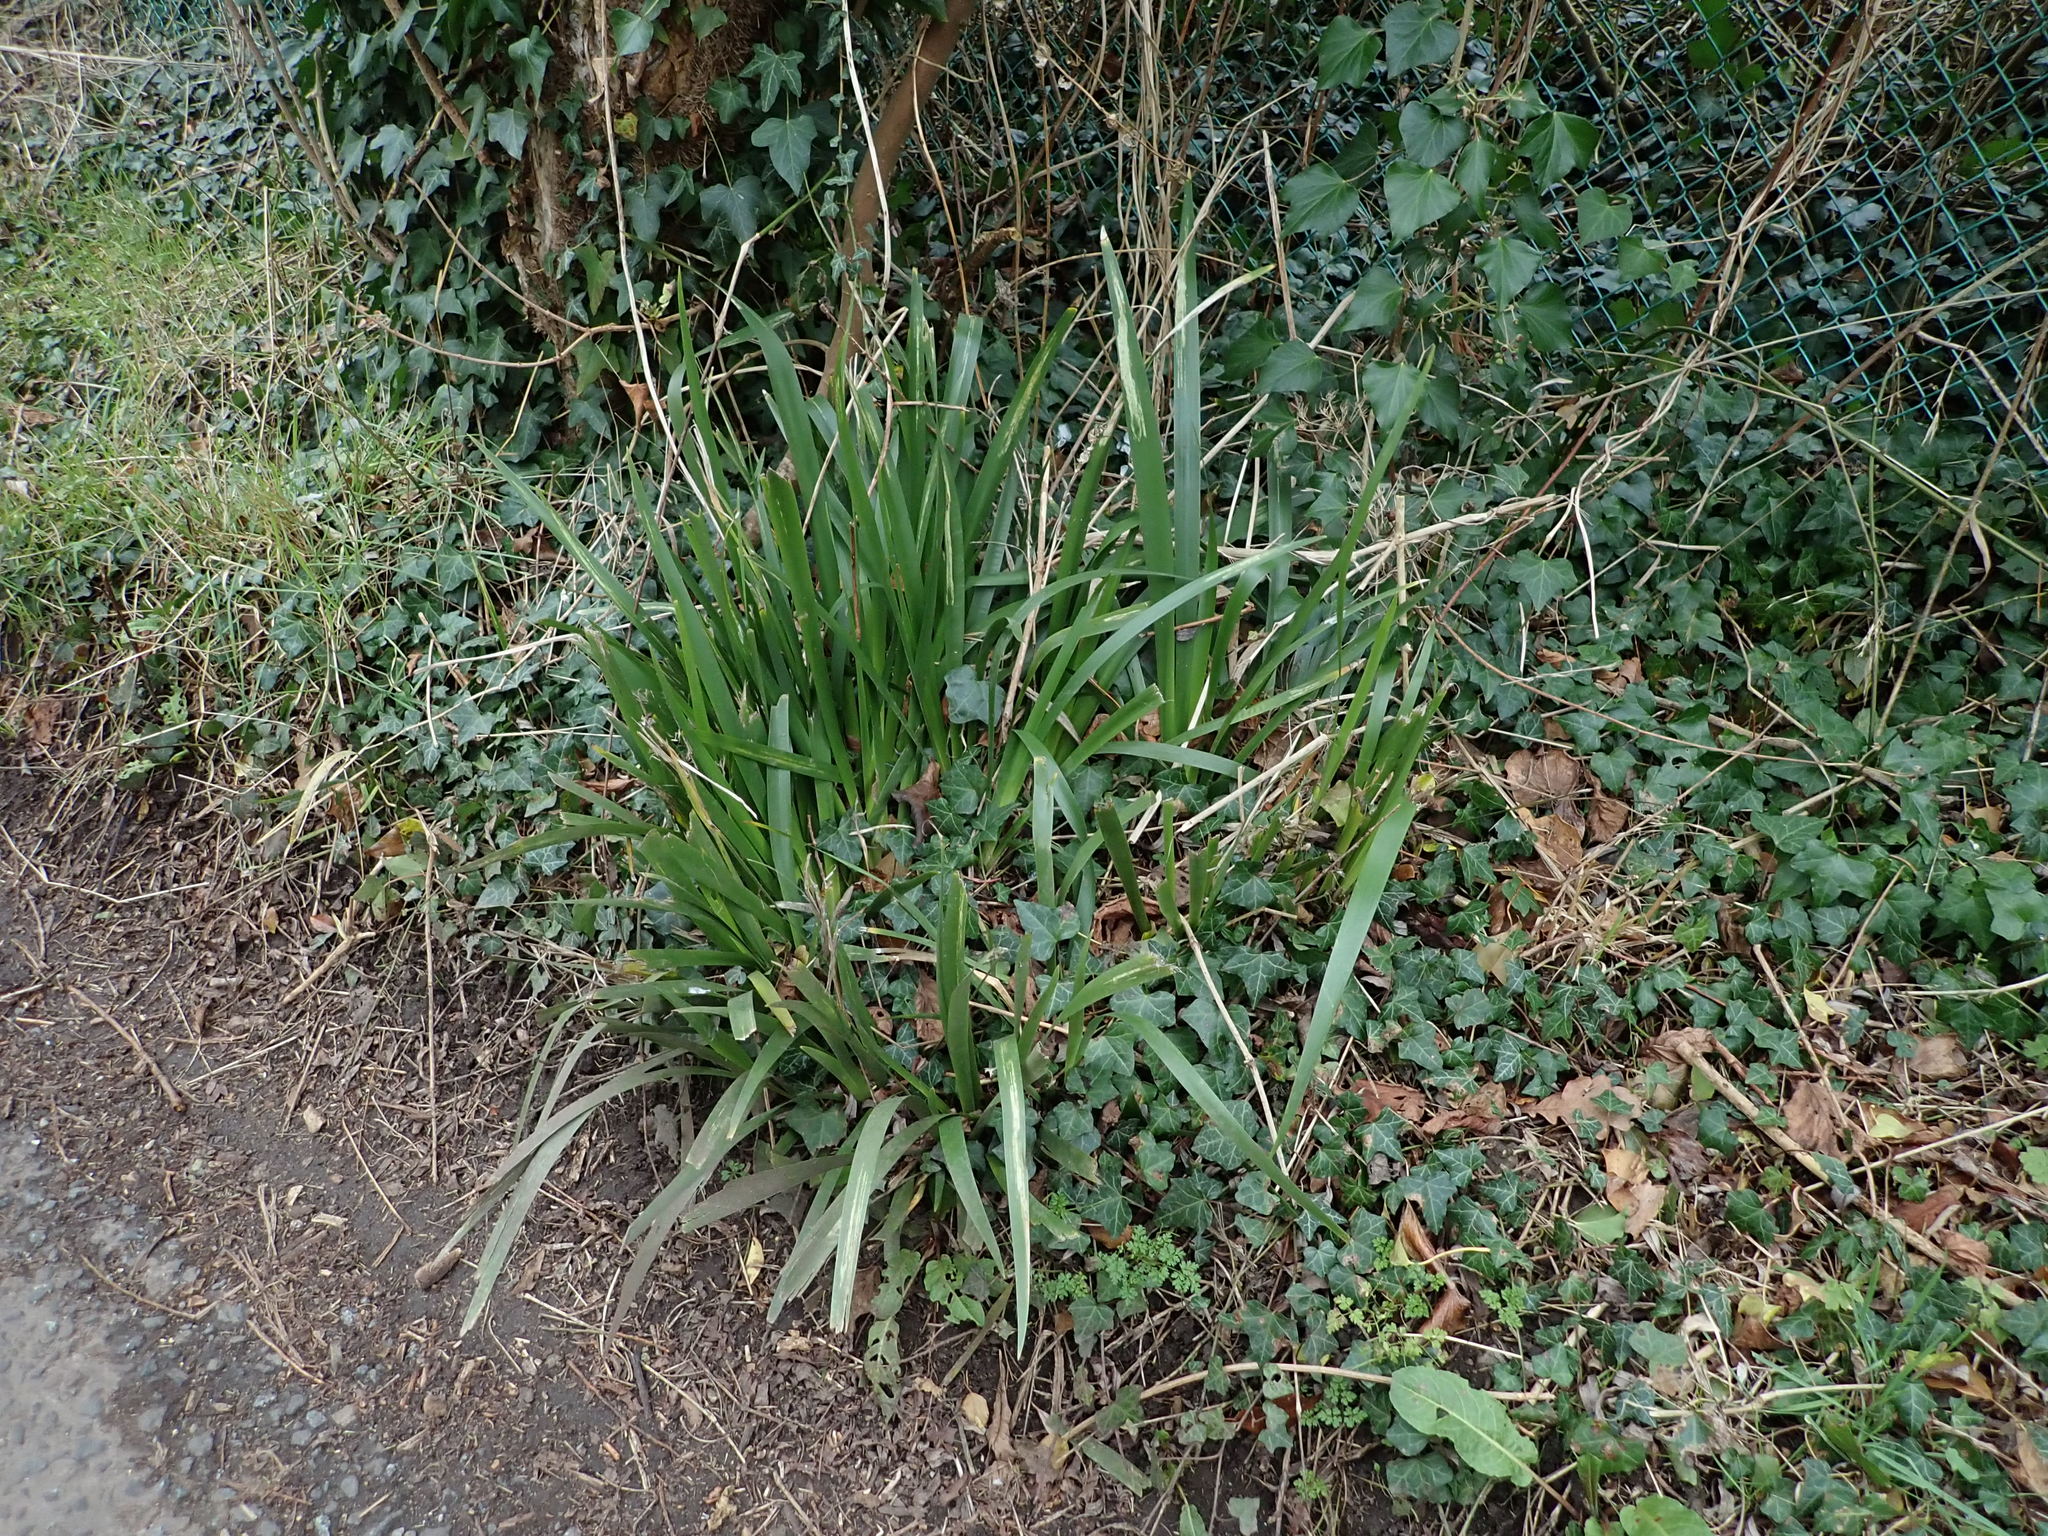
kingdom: Plantae
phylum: Tracheophyta
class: Liliopsida
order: Asparagales
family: Iridaceae
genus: Iris
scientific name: Iris foetidissima
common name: Stinking iris
